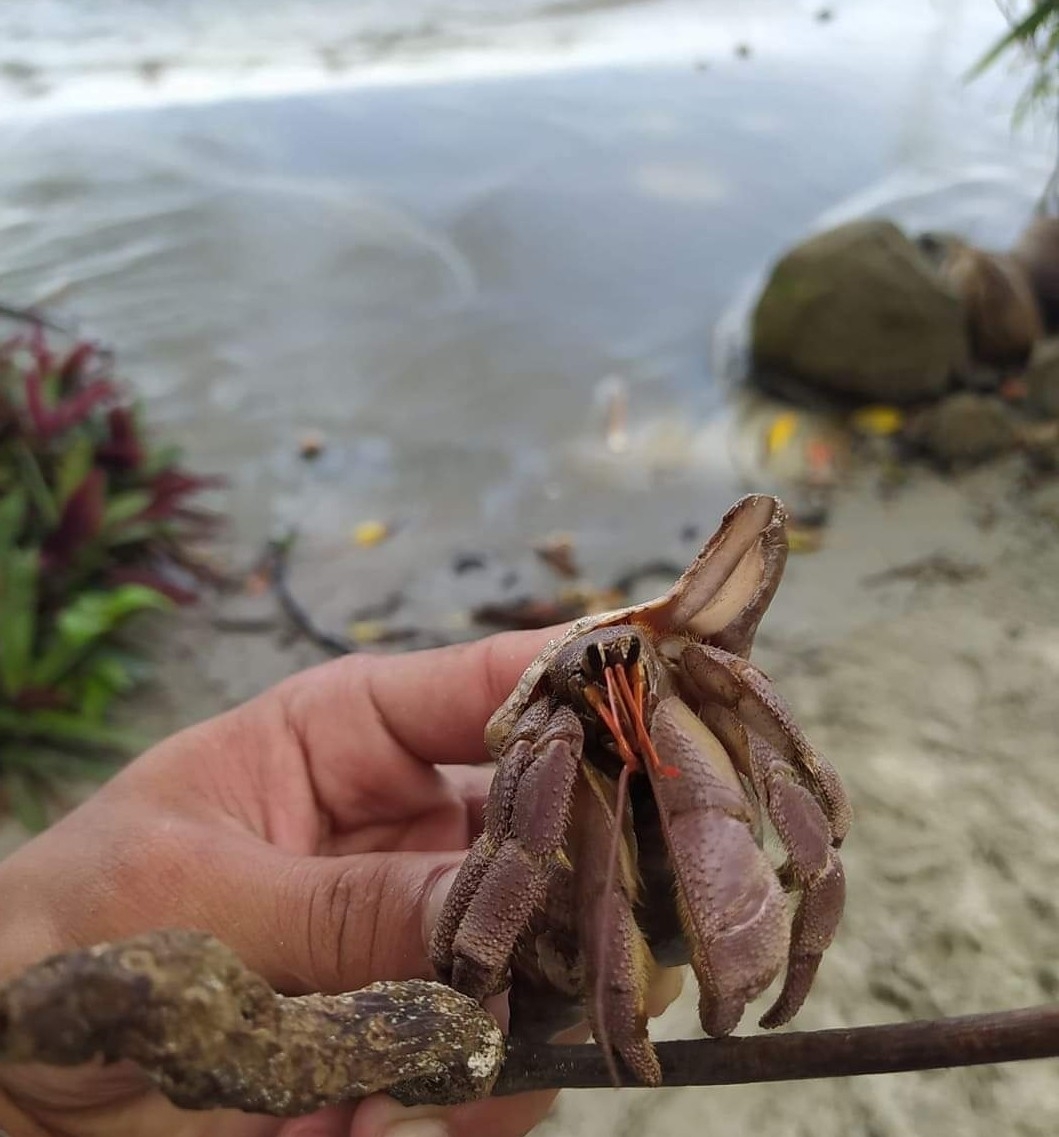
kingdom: Animalia
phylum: Arthropoda
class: Malacostraca
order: Decapoda
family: Coenobitidae
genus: Coenobita
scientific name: Coenobita violascens
